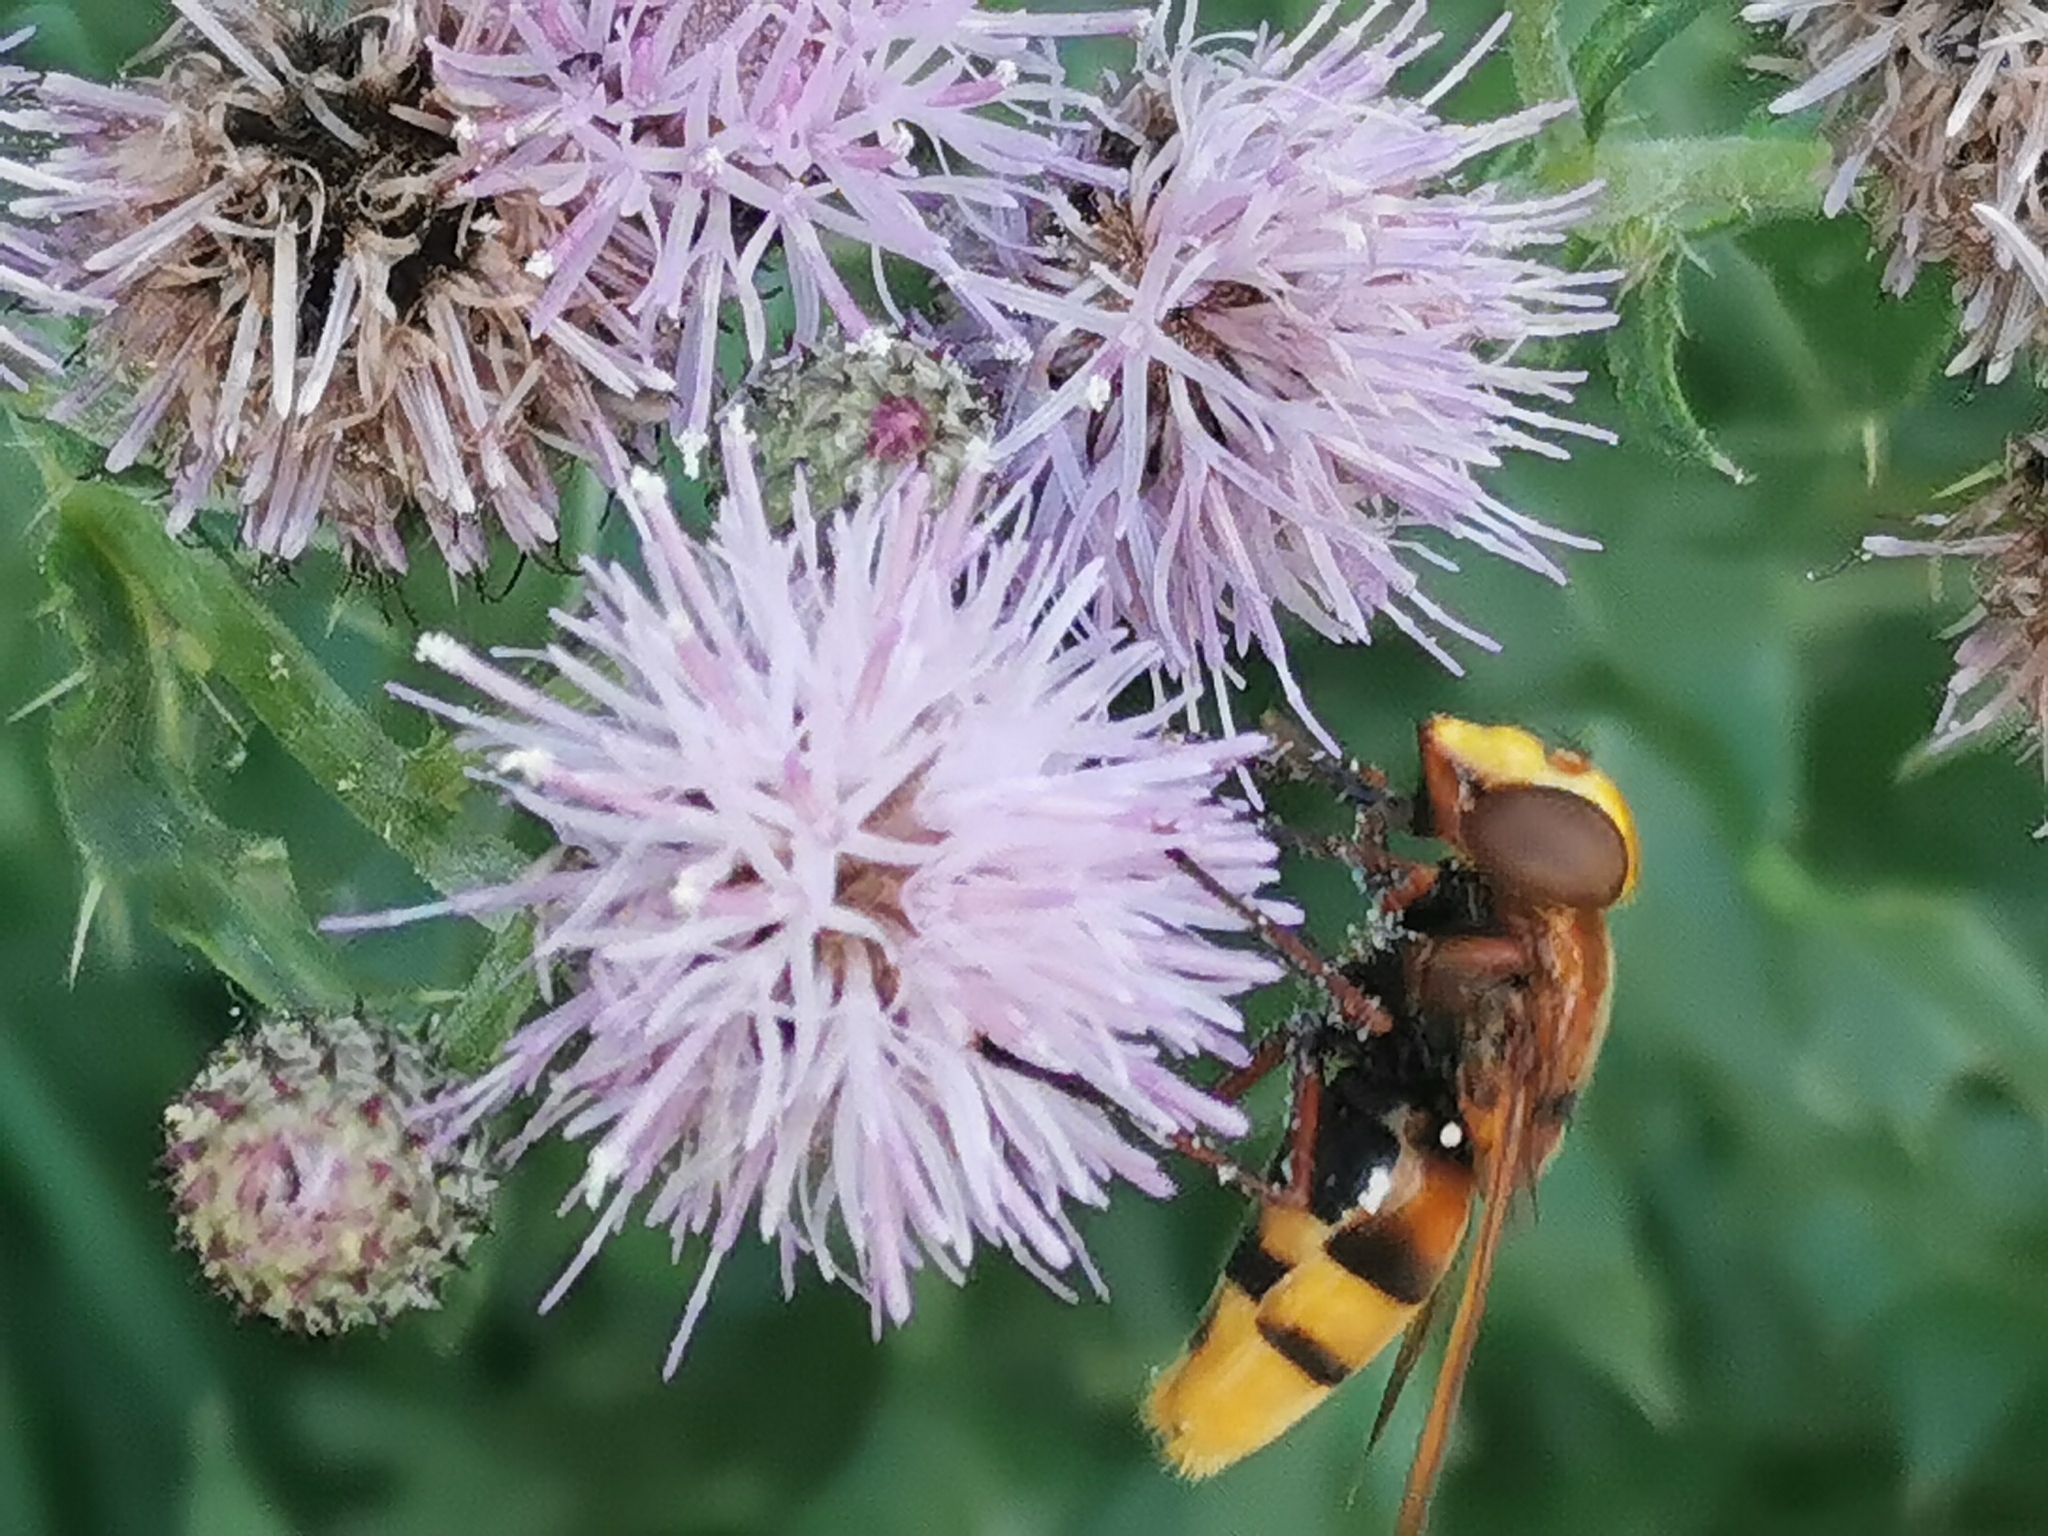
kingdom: Animalia
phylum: Arthropoda
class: Insecta
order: Diptera
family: Syrphidae
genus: Volucella
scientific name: Volucella zonaria
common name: Hornet hoverfly
